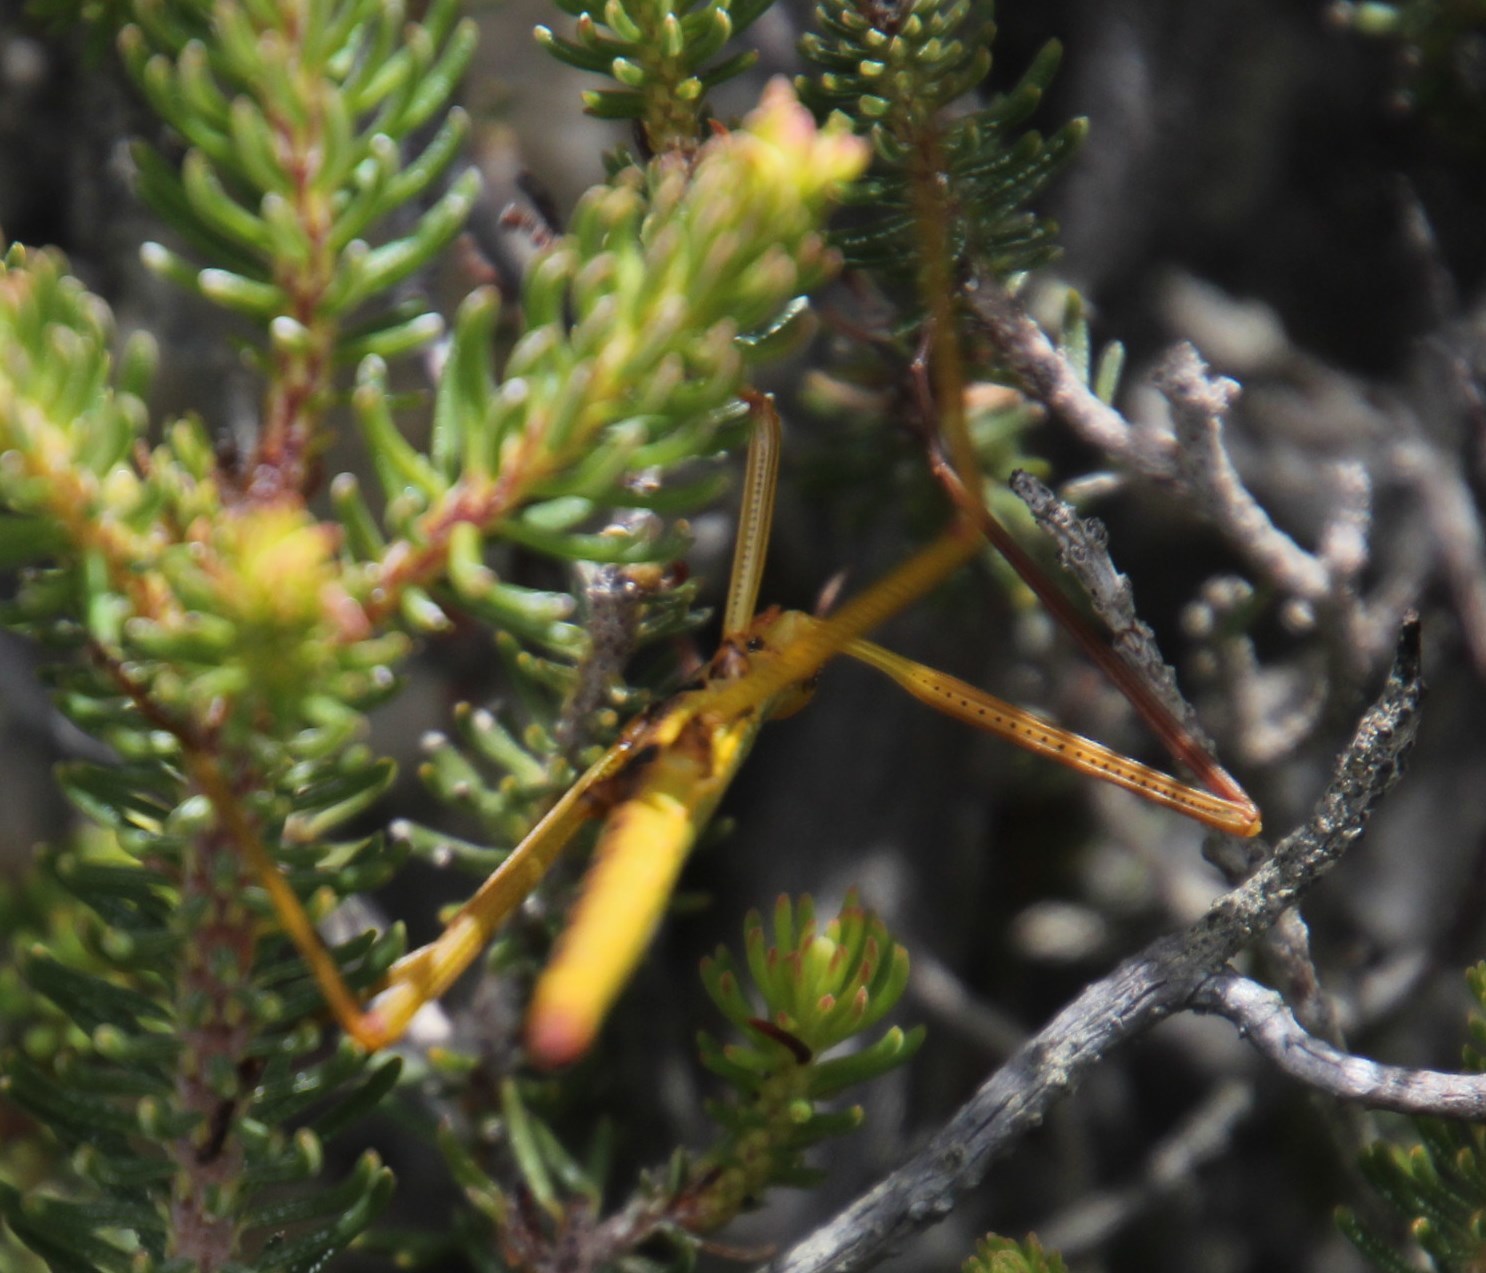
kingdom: Animalia
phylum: Arthropoda
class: Insecta
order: Phasmida
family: Bacillidae
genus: Macynia
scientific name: Macynia labiata
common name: Thunberg's stick insect
